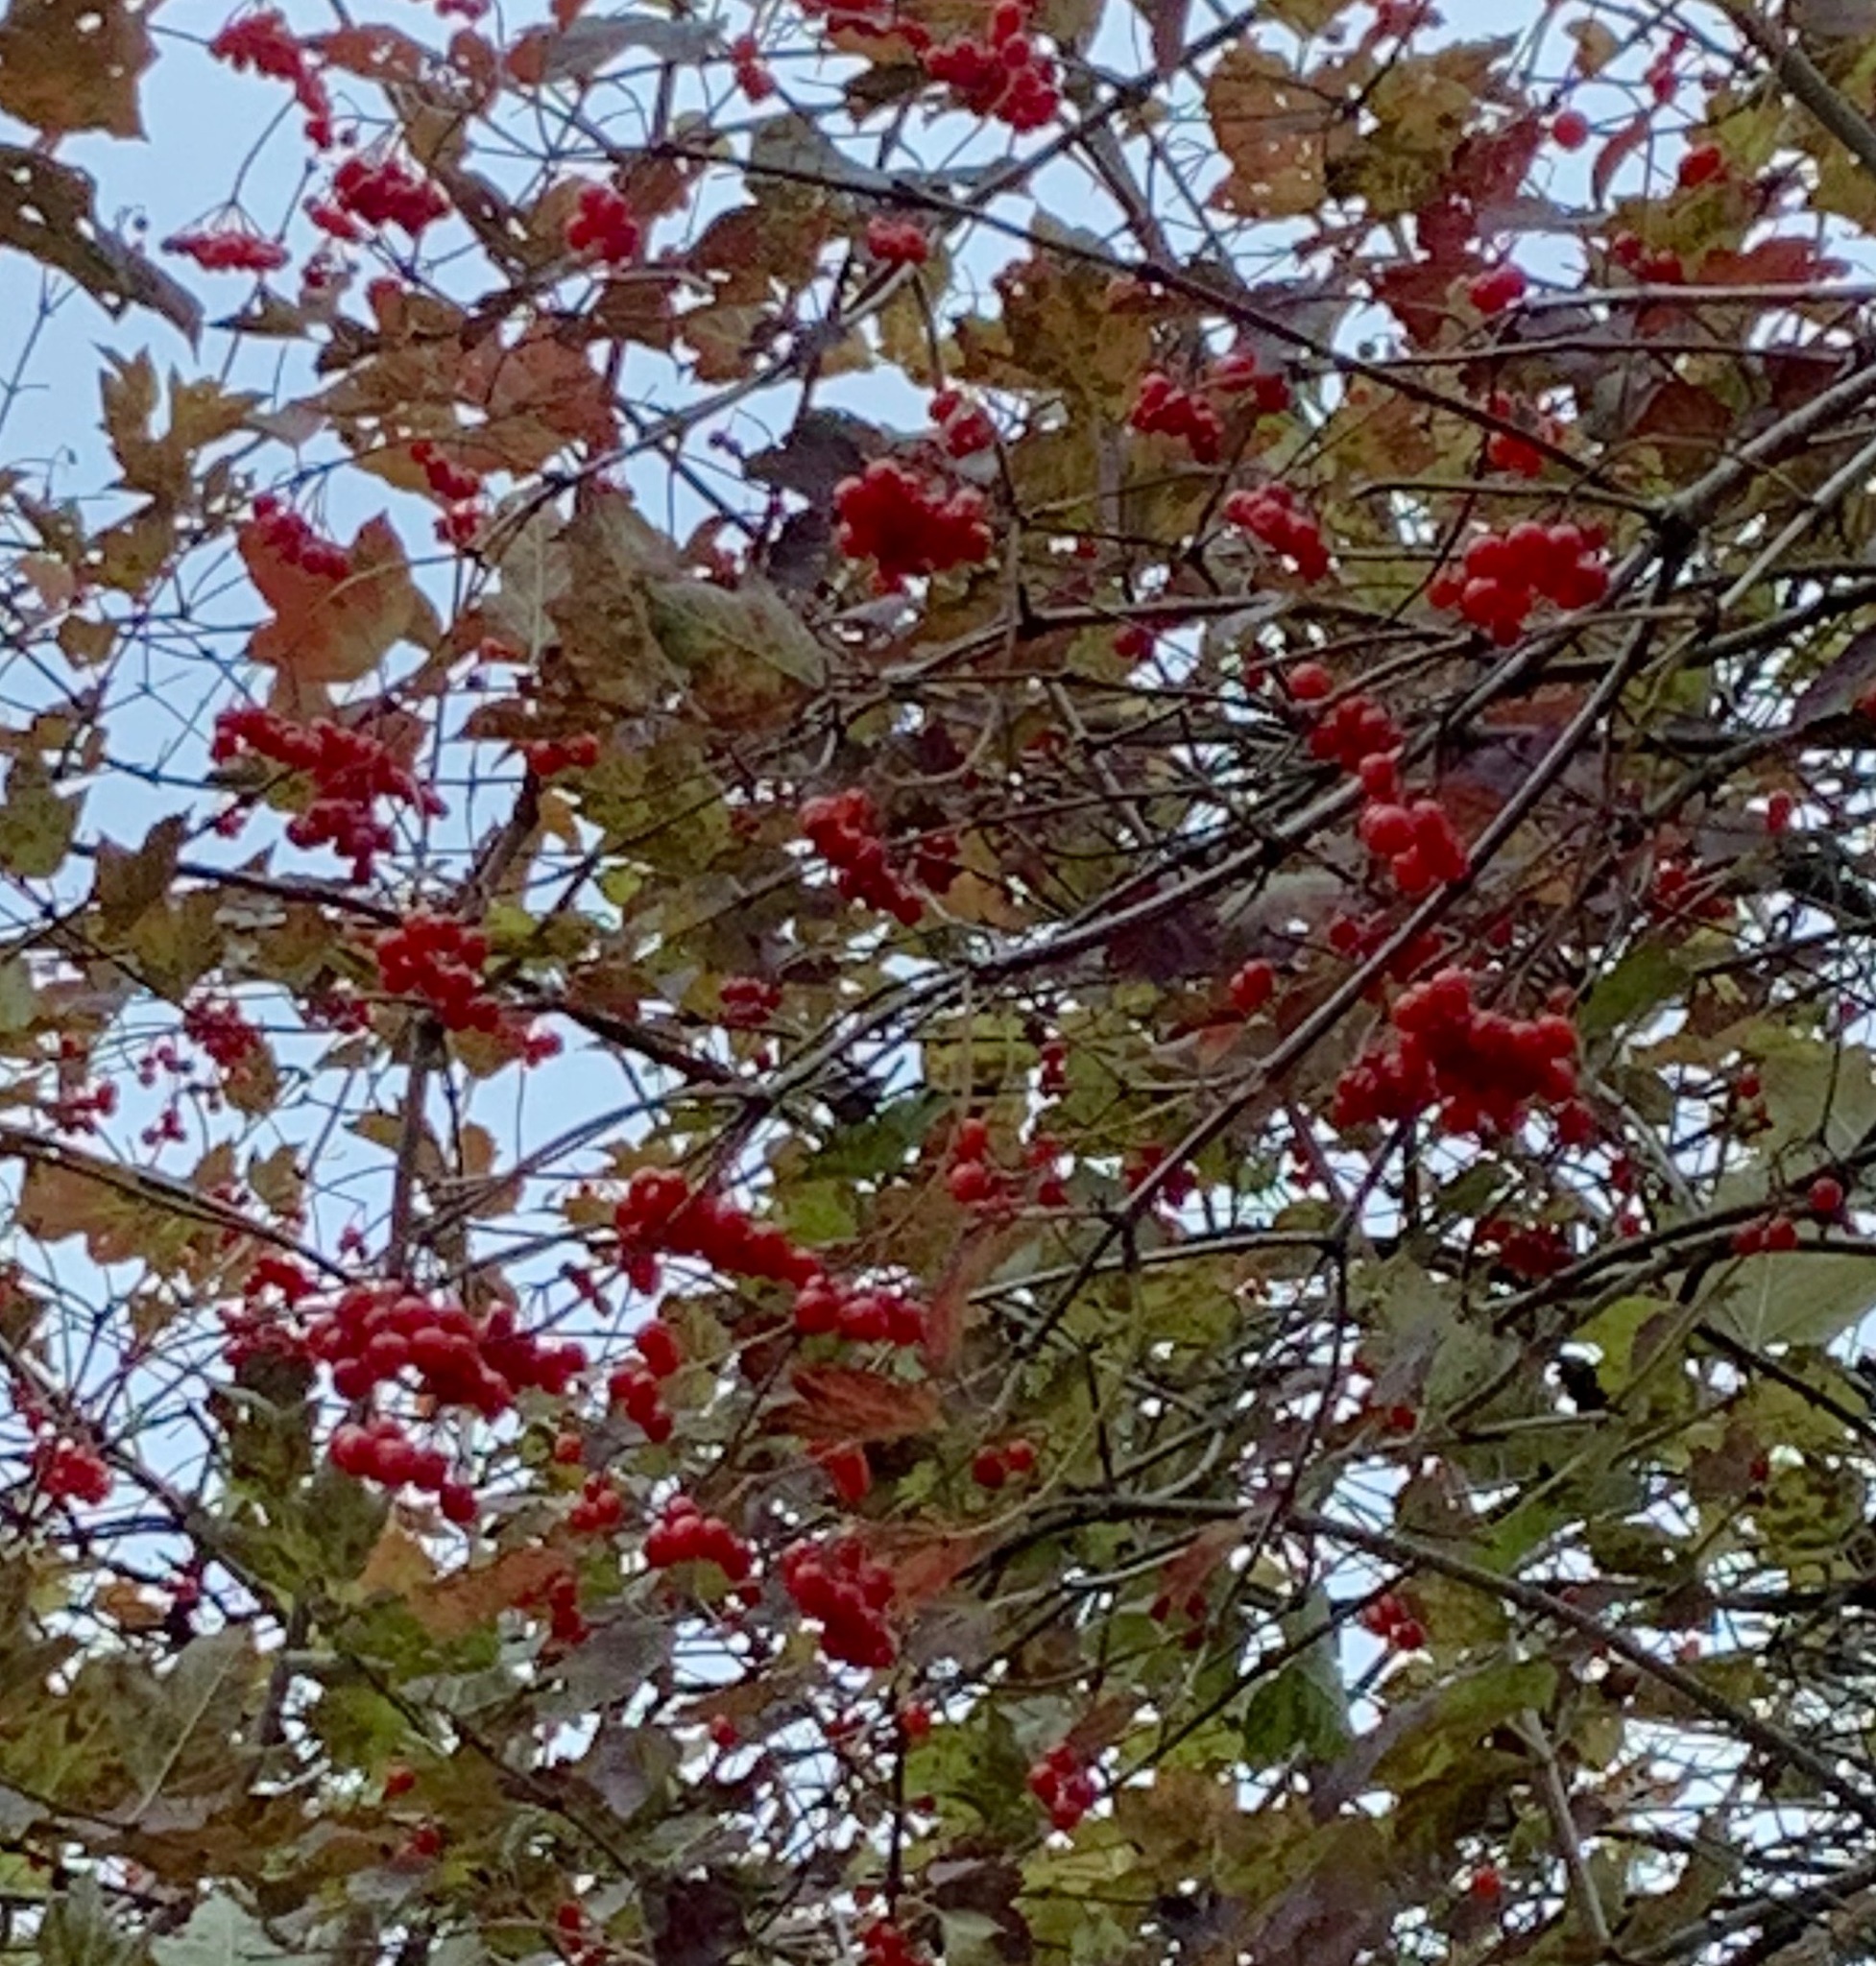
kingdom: Plantae
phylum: Tracheophyta
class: Magnoliopsida
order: Dipsacales
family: Viburnaceae
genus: Viburnum
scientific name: Viburnum opulus
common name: Guelder-rose
